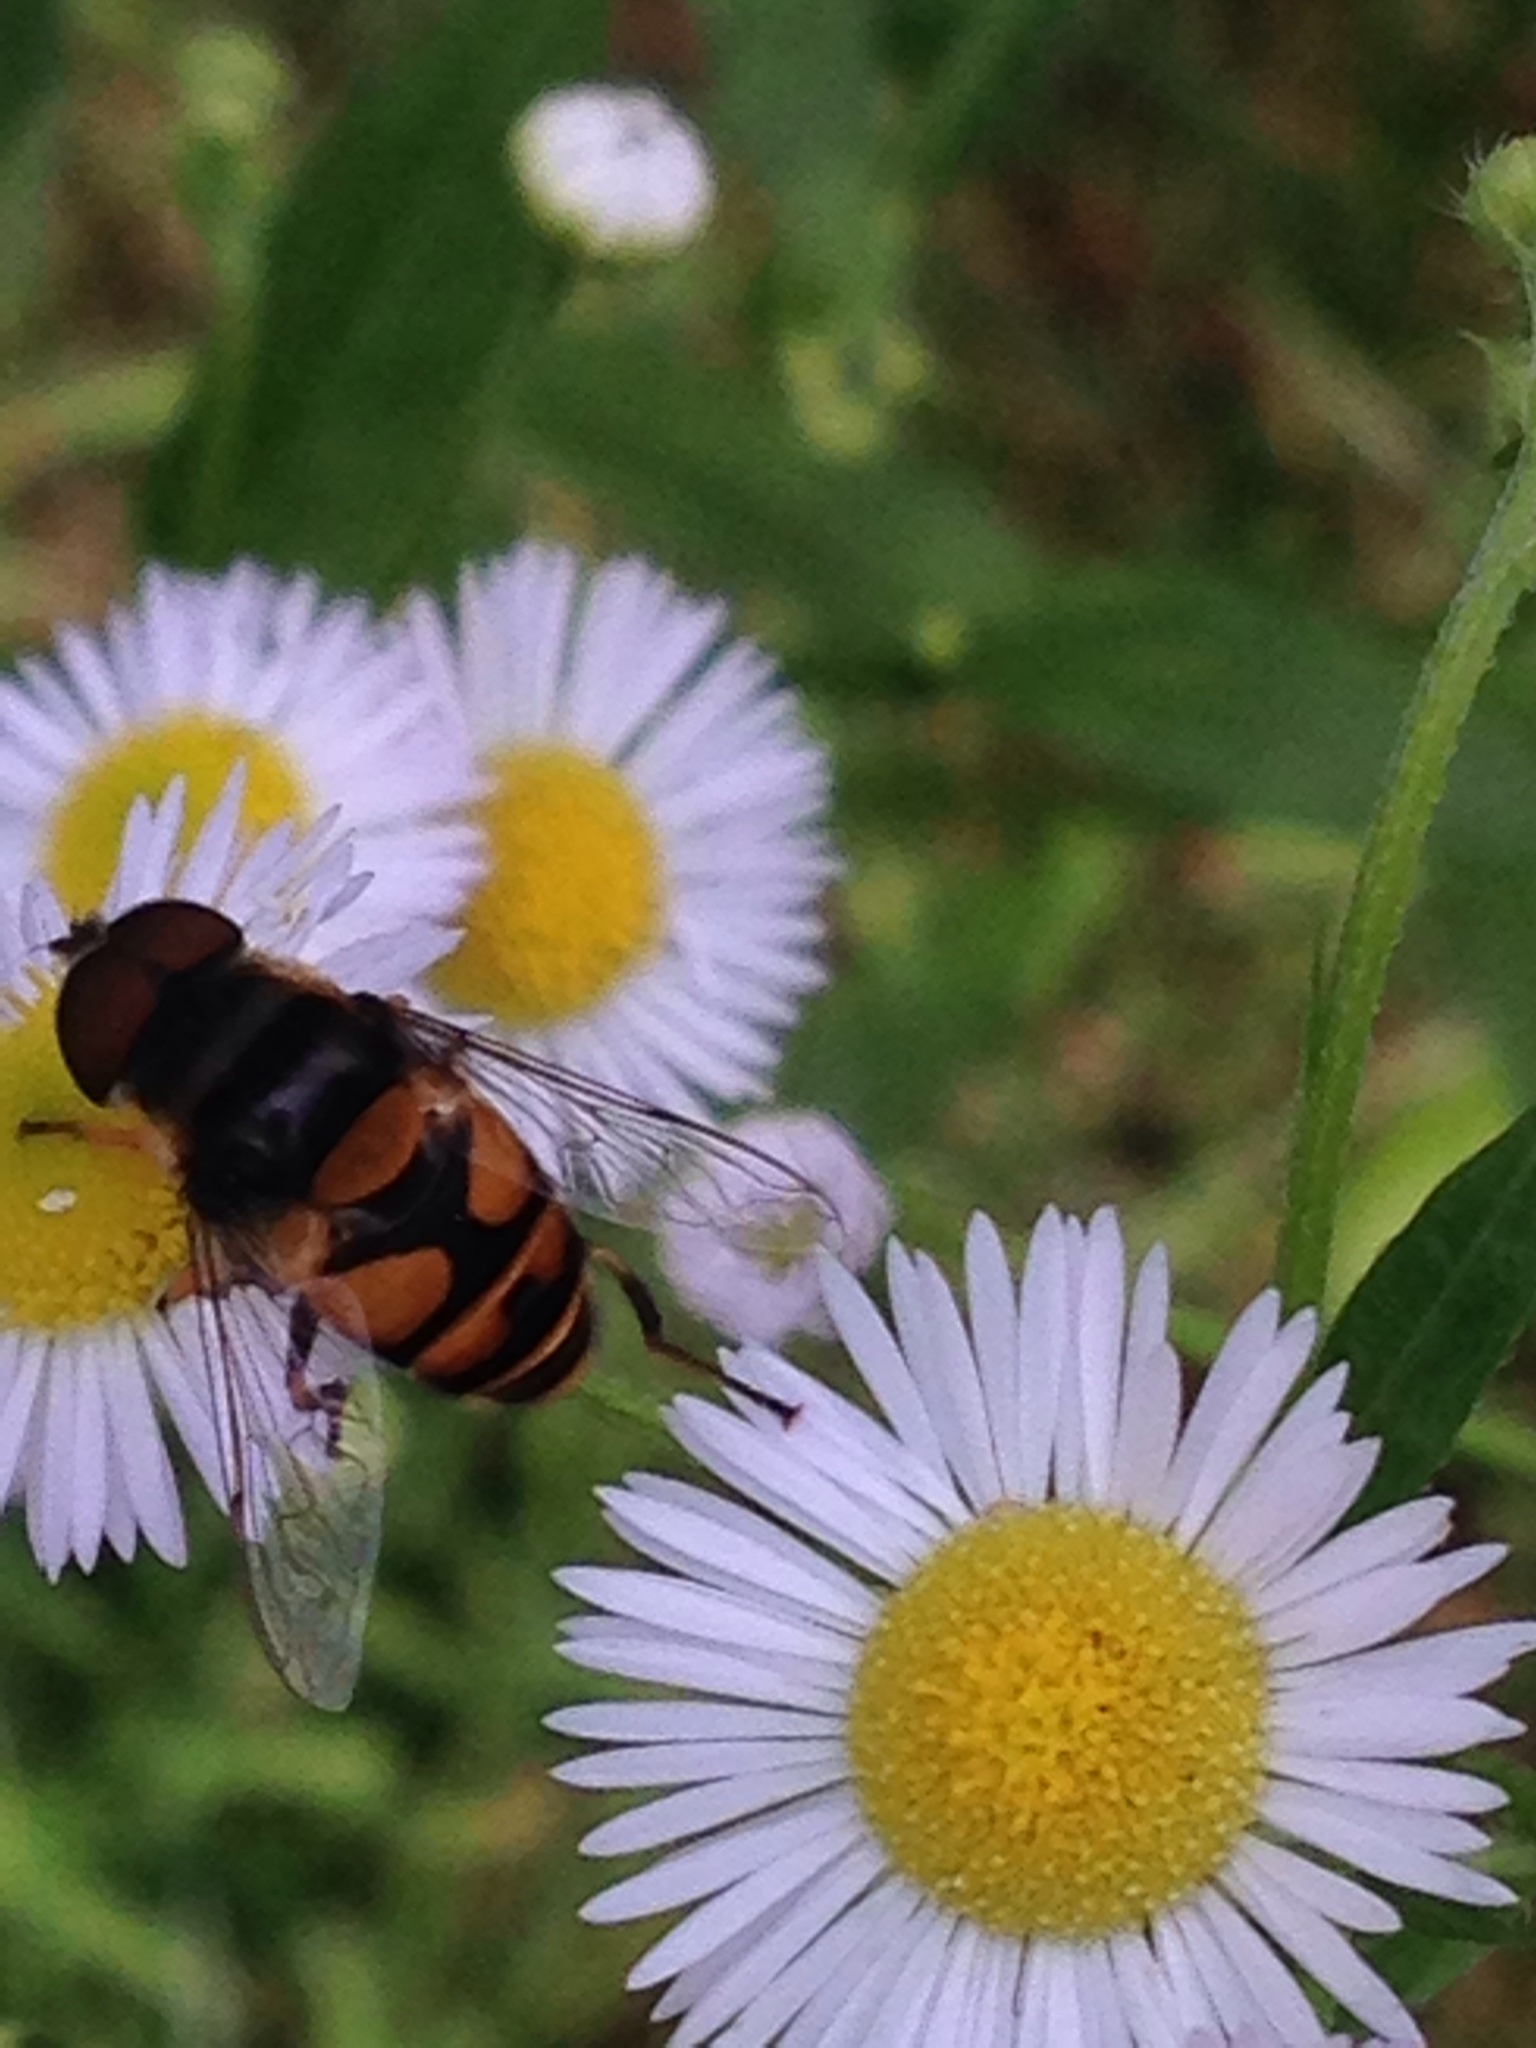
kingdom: Animalia
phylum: Arthropoda
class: Insecta
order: Diptera
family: Syrphidae
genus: Eristalis
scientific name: Eristalis transversa
